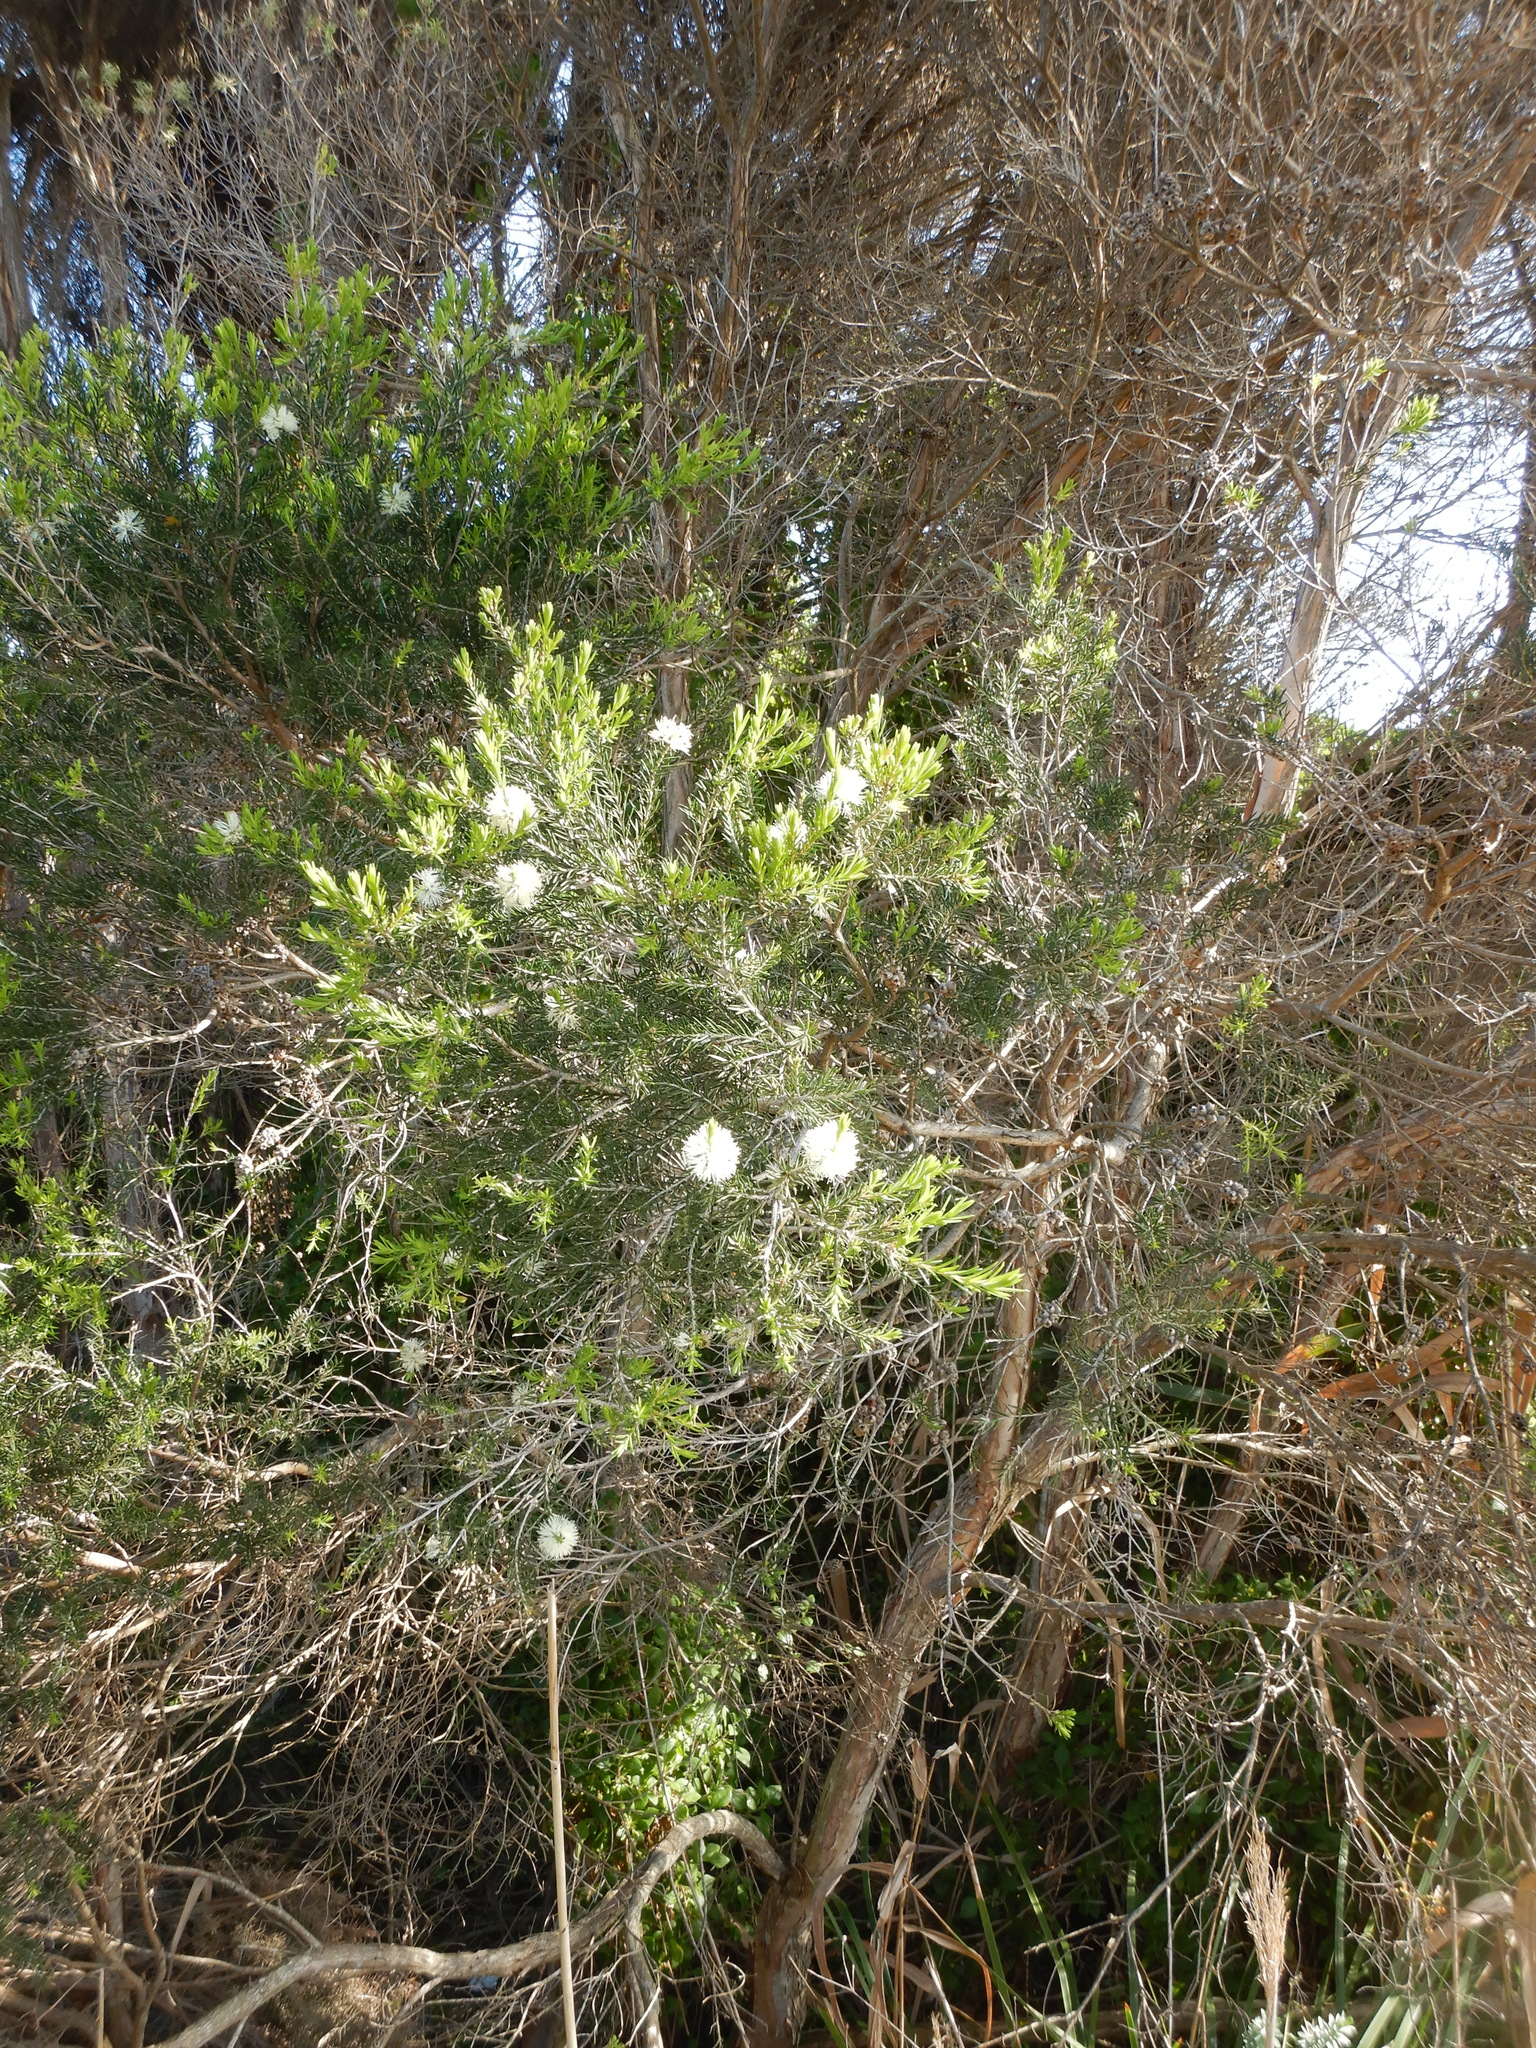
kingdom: Plantae
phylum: Tracheophyta
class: Magnoliopsida
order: Myrtales
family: Myrtaceae
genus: Melaleuca
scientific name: Melaleuca ericifolia
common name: Paperbark teatree
